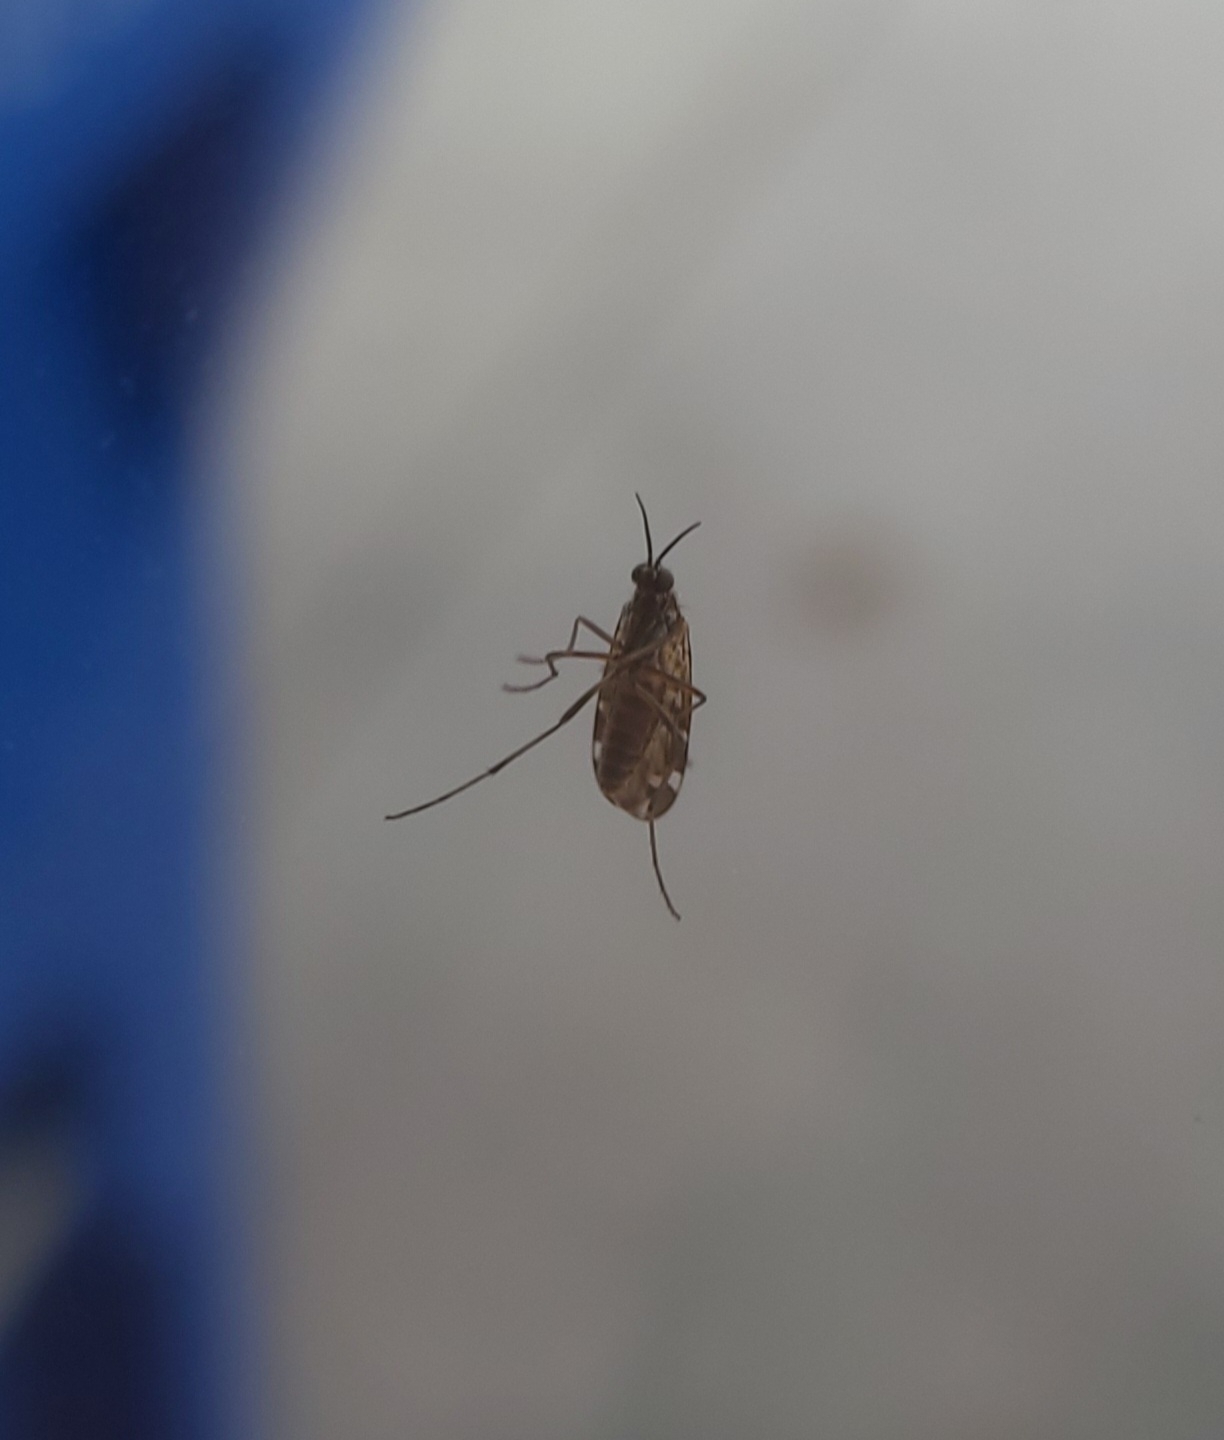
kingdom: Animalia
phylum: Arthropoda
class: Insecta
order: Diptera
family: Anisopodidae
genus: Sylvicola
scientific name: Sylvicola alternata
